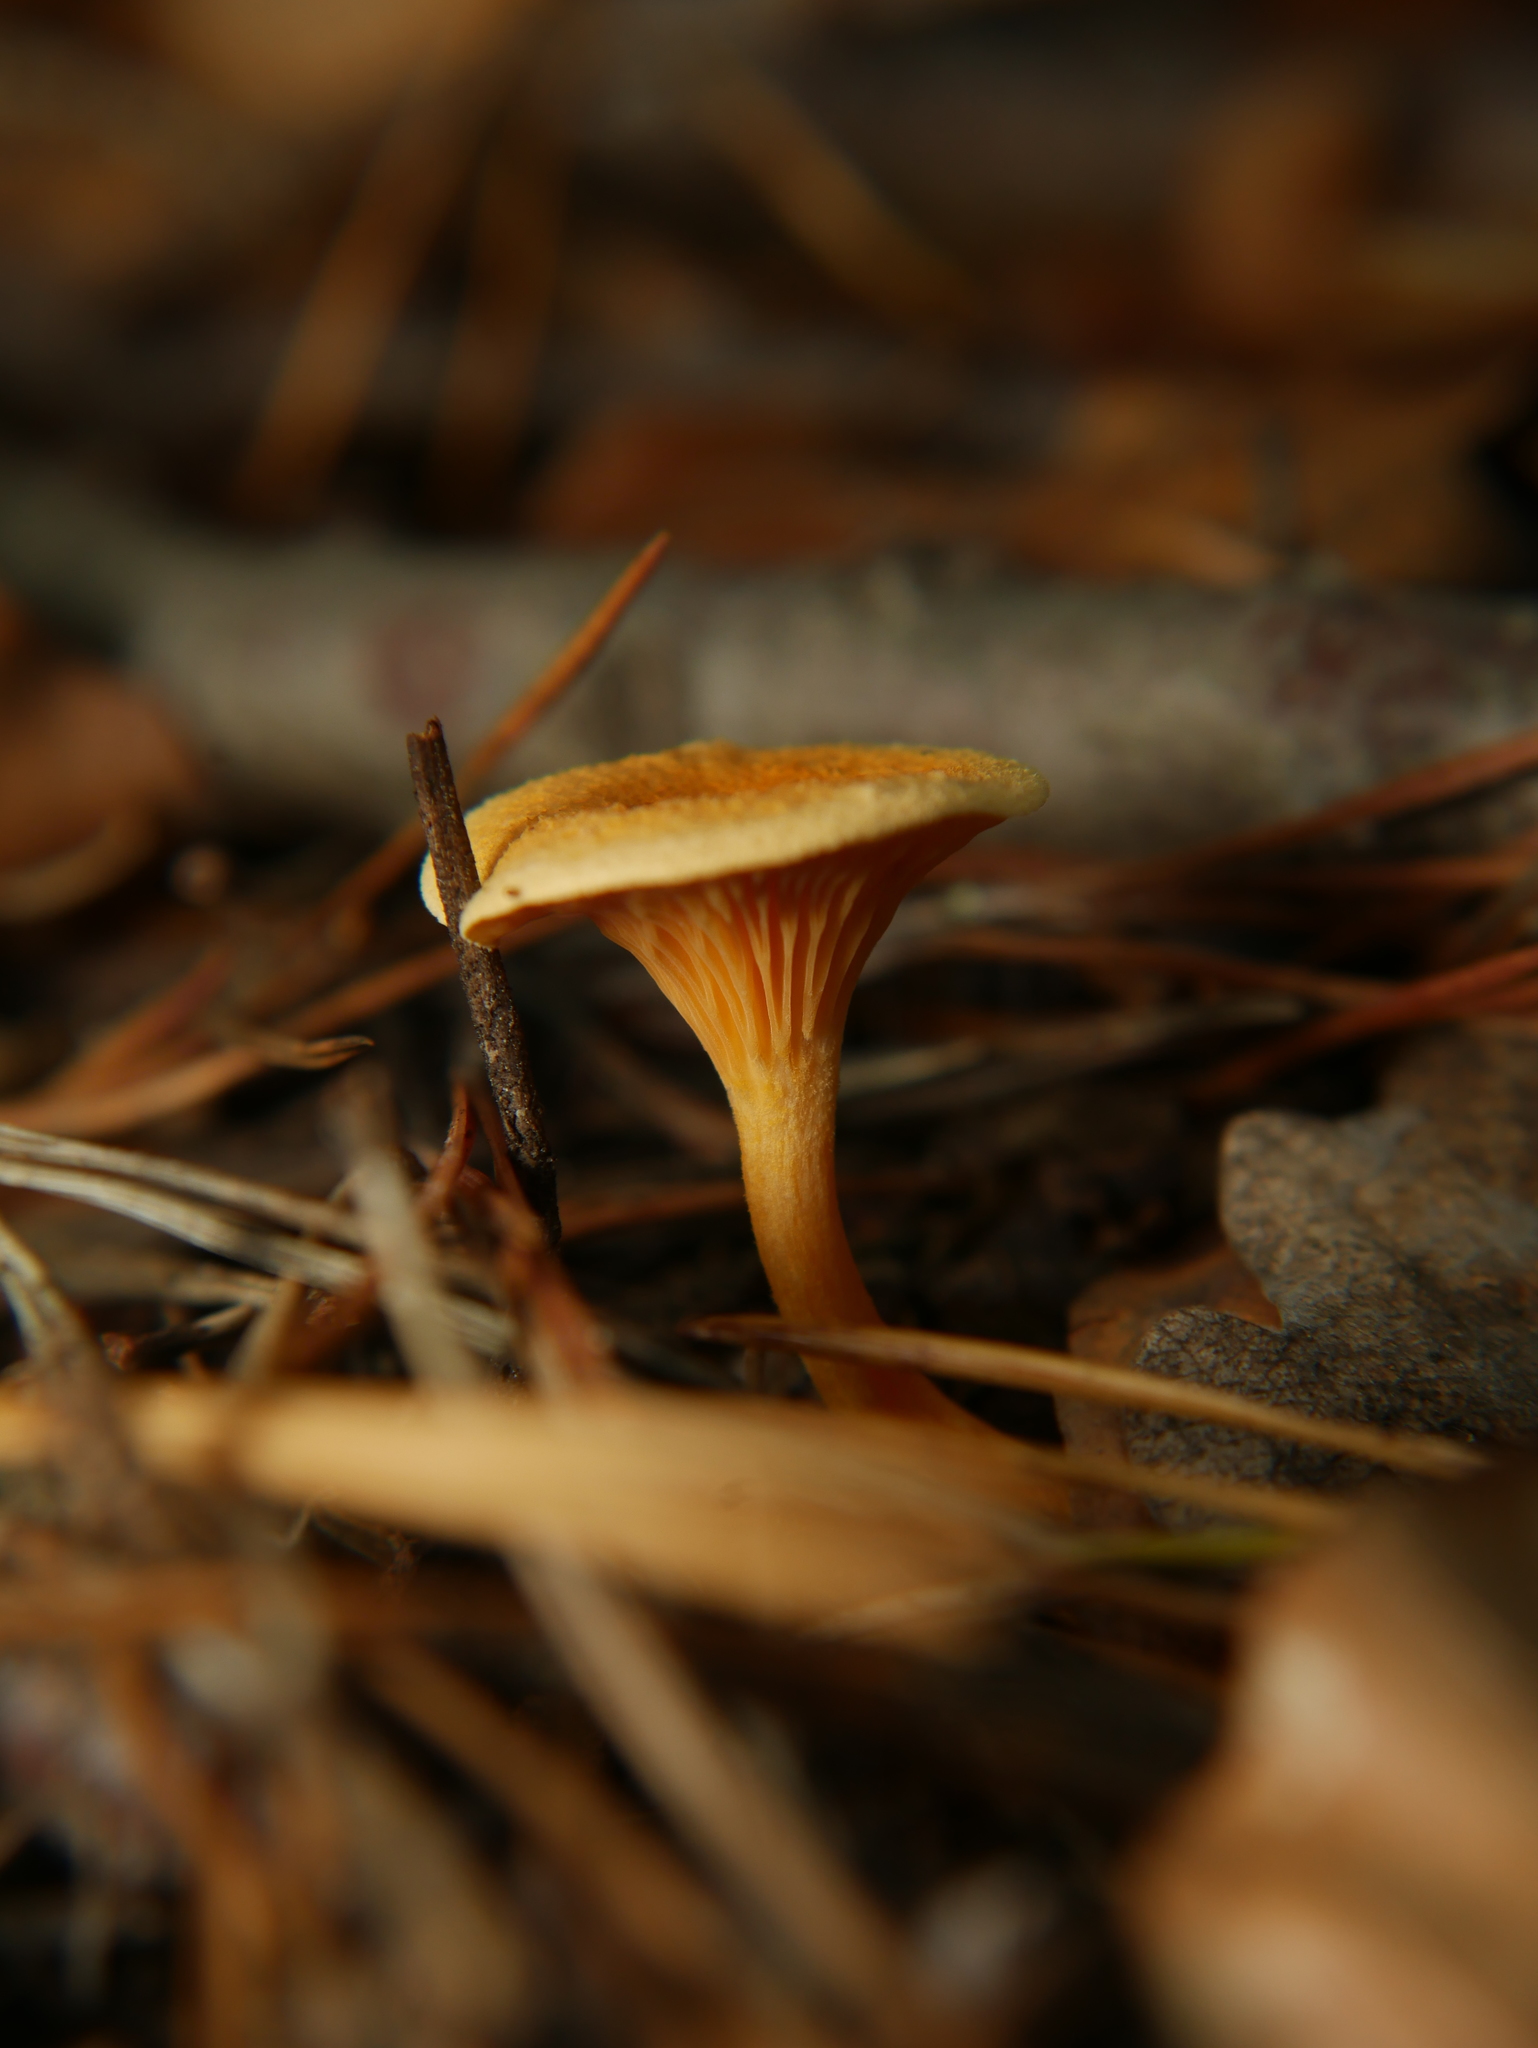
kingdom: Fungi
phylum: Basidiomycota
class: Agaricomycetes
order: Boletales
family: Hygrophoropsidaceae
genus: Hygrophoropsis
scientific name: Hygrophoropsis aurantiaca
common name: False chanterelle
